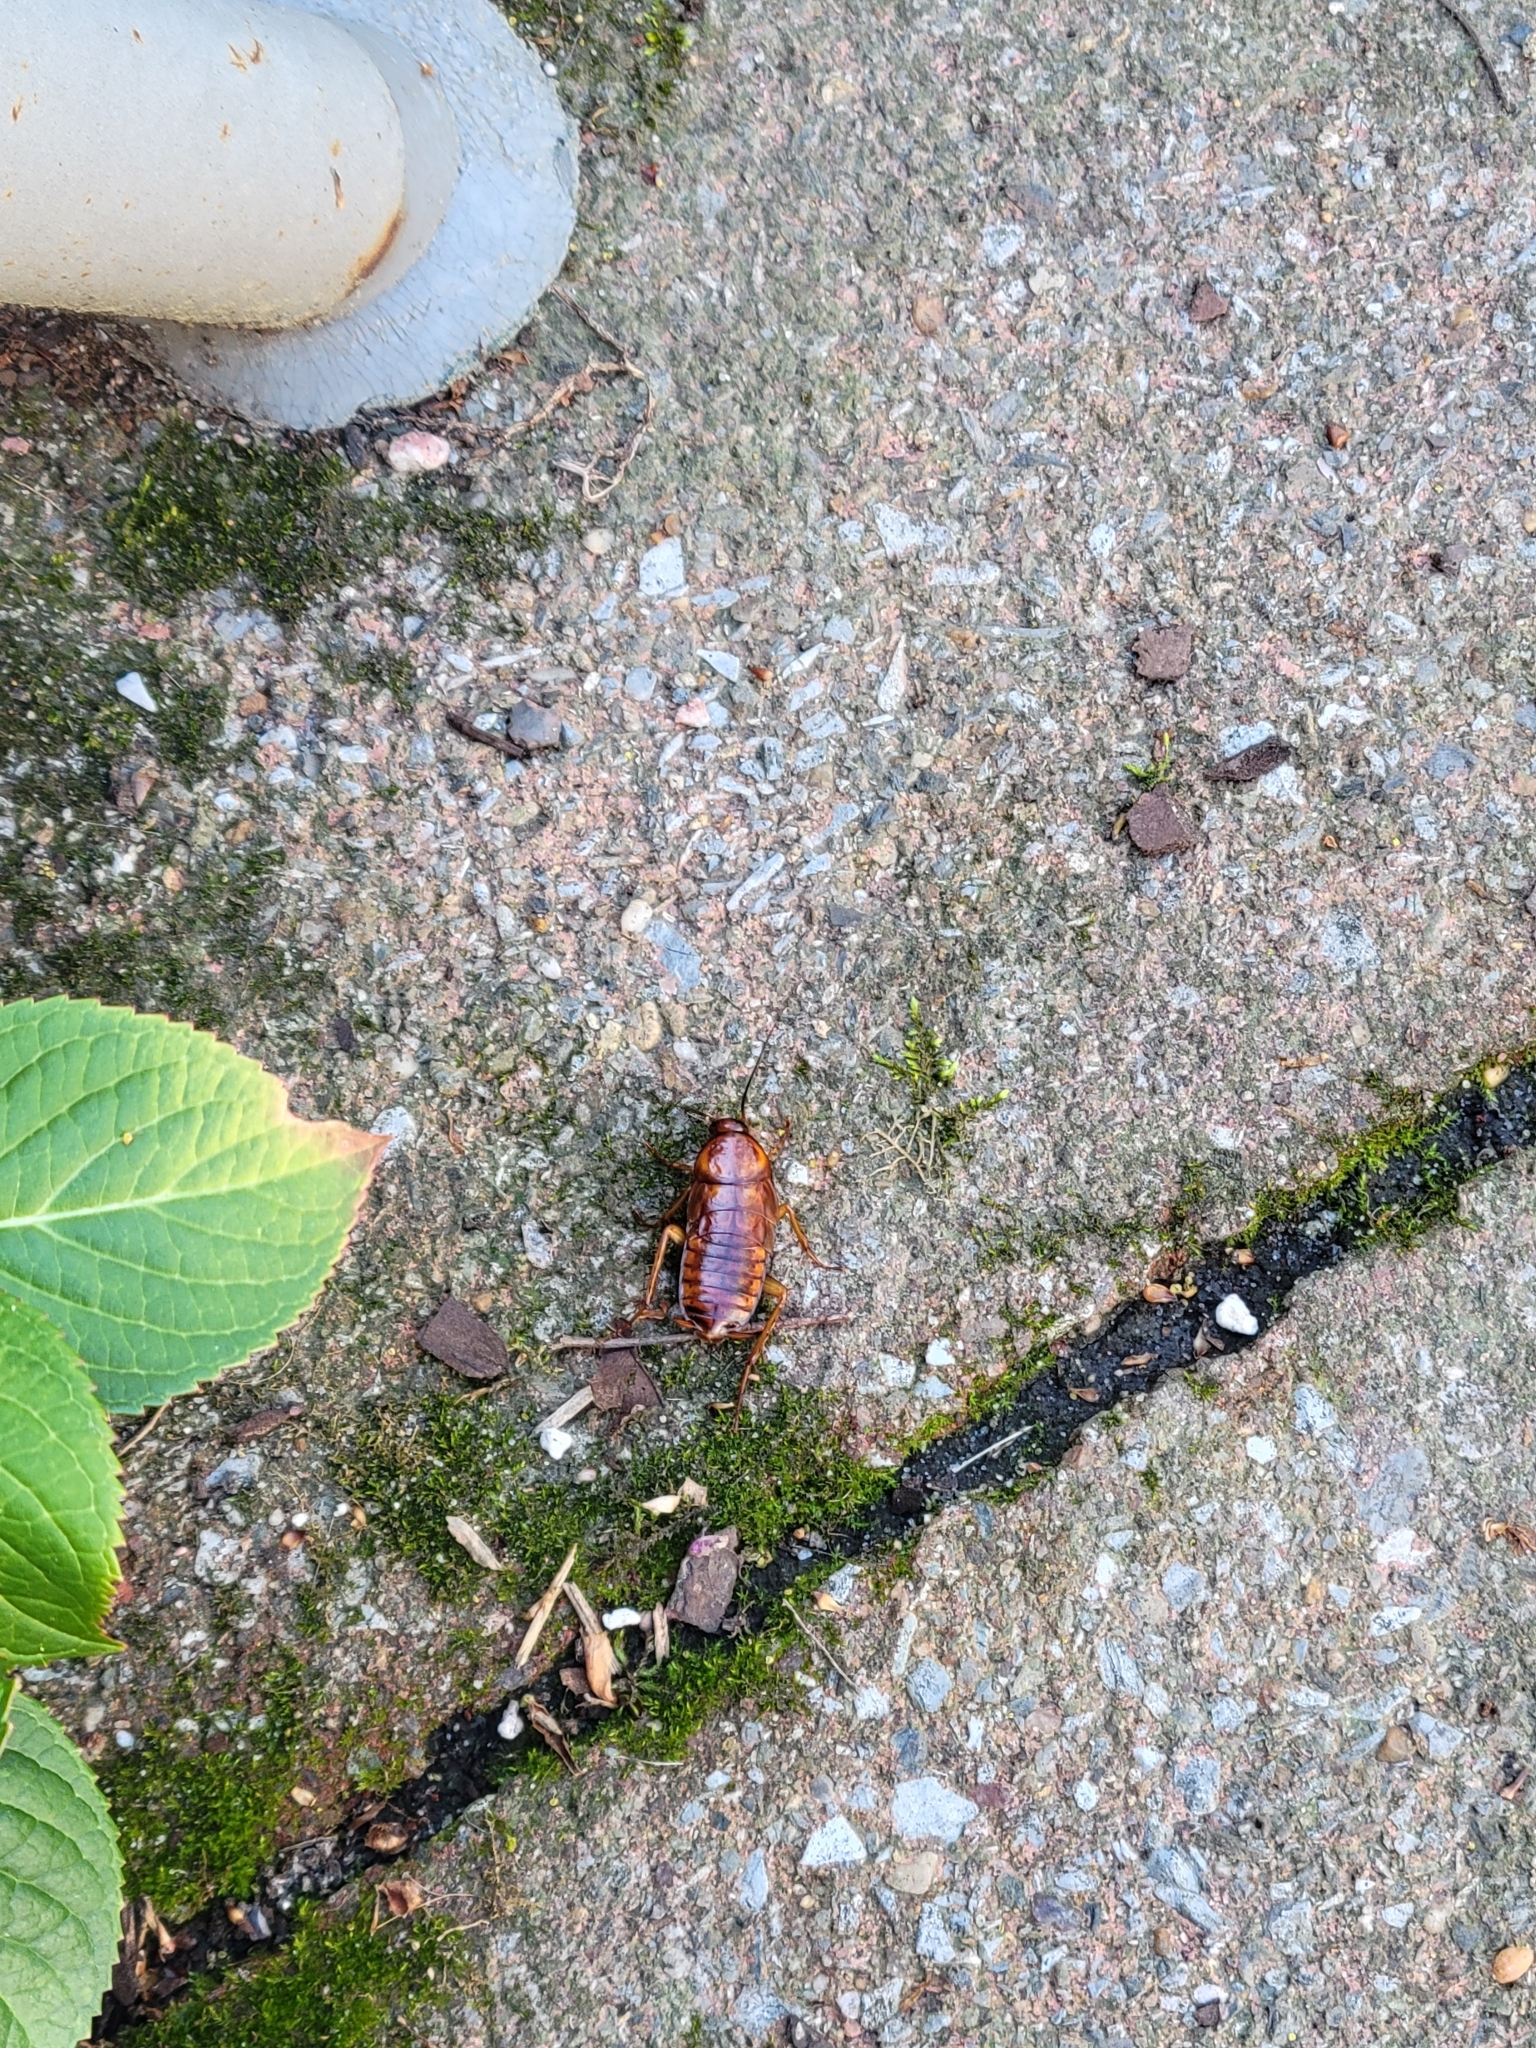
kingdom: Animalia
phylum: Arthropoda
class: Insecta
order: Blattodea
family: Blattidae
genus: Periplaneta
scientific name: Periplaneta americana
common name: American cockroach
